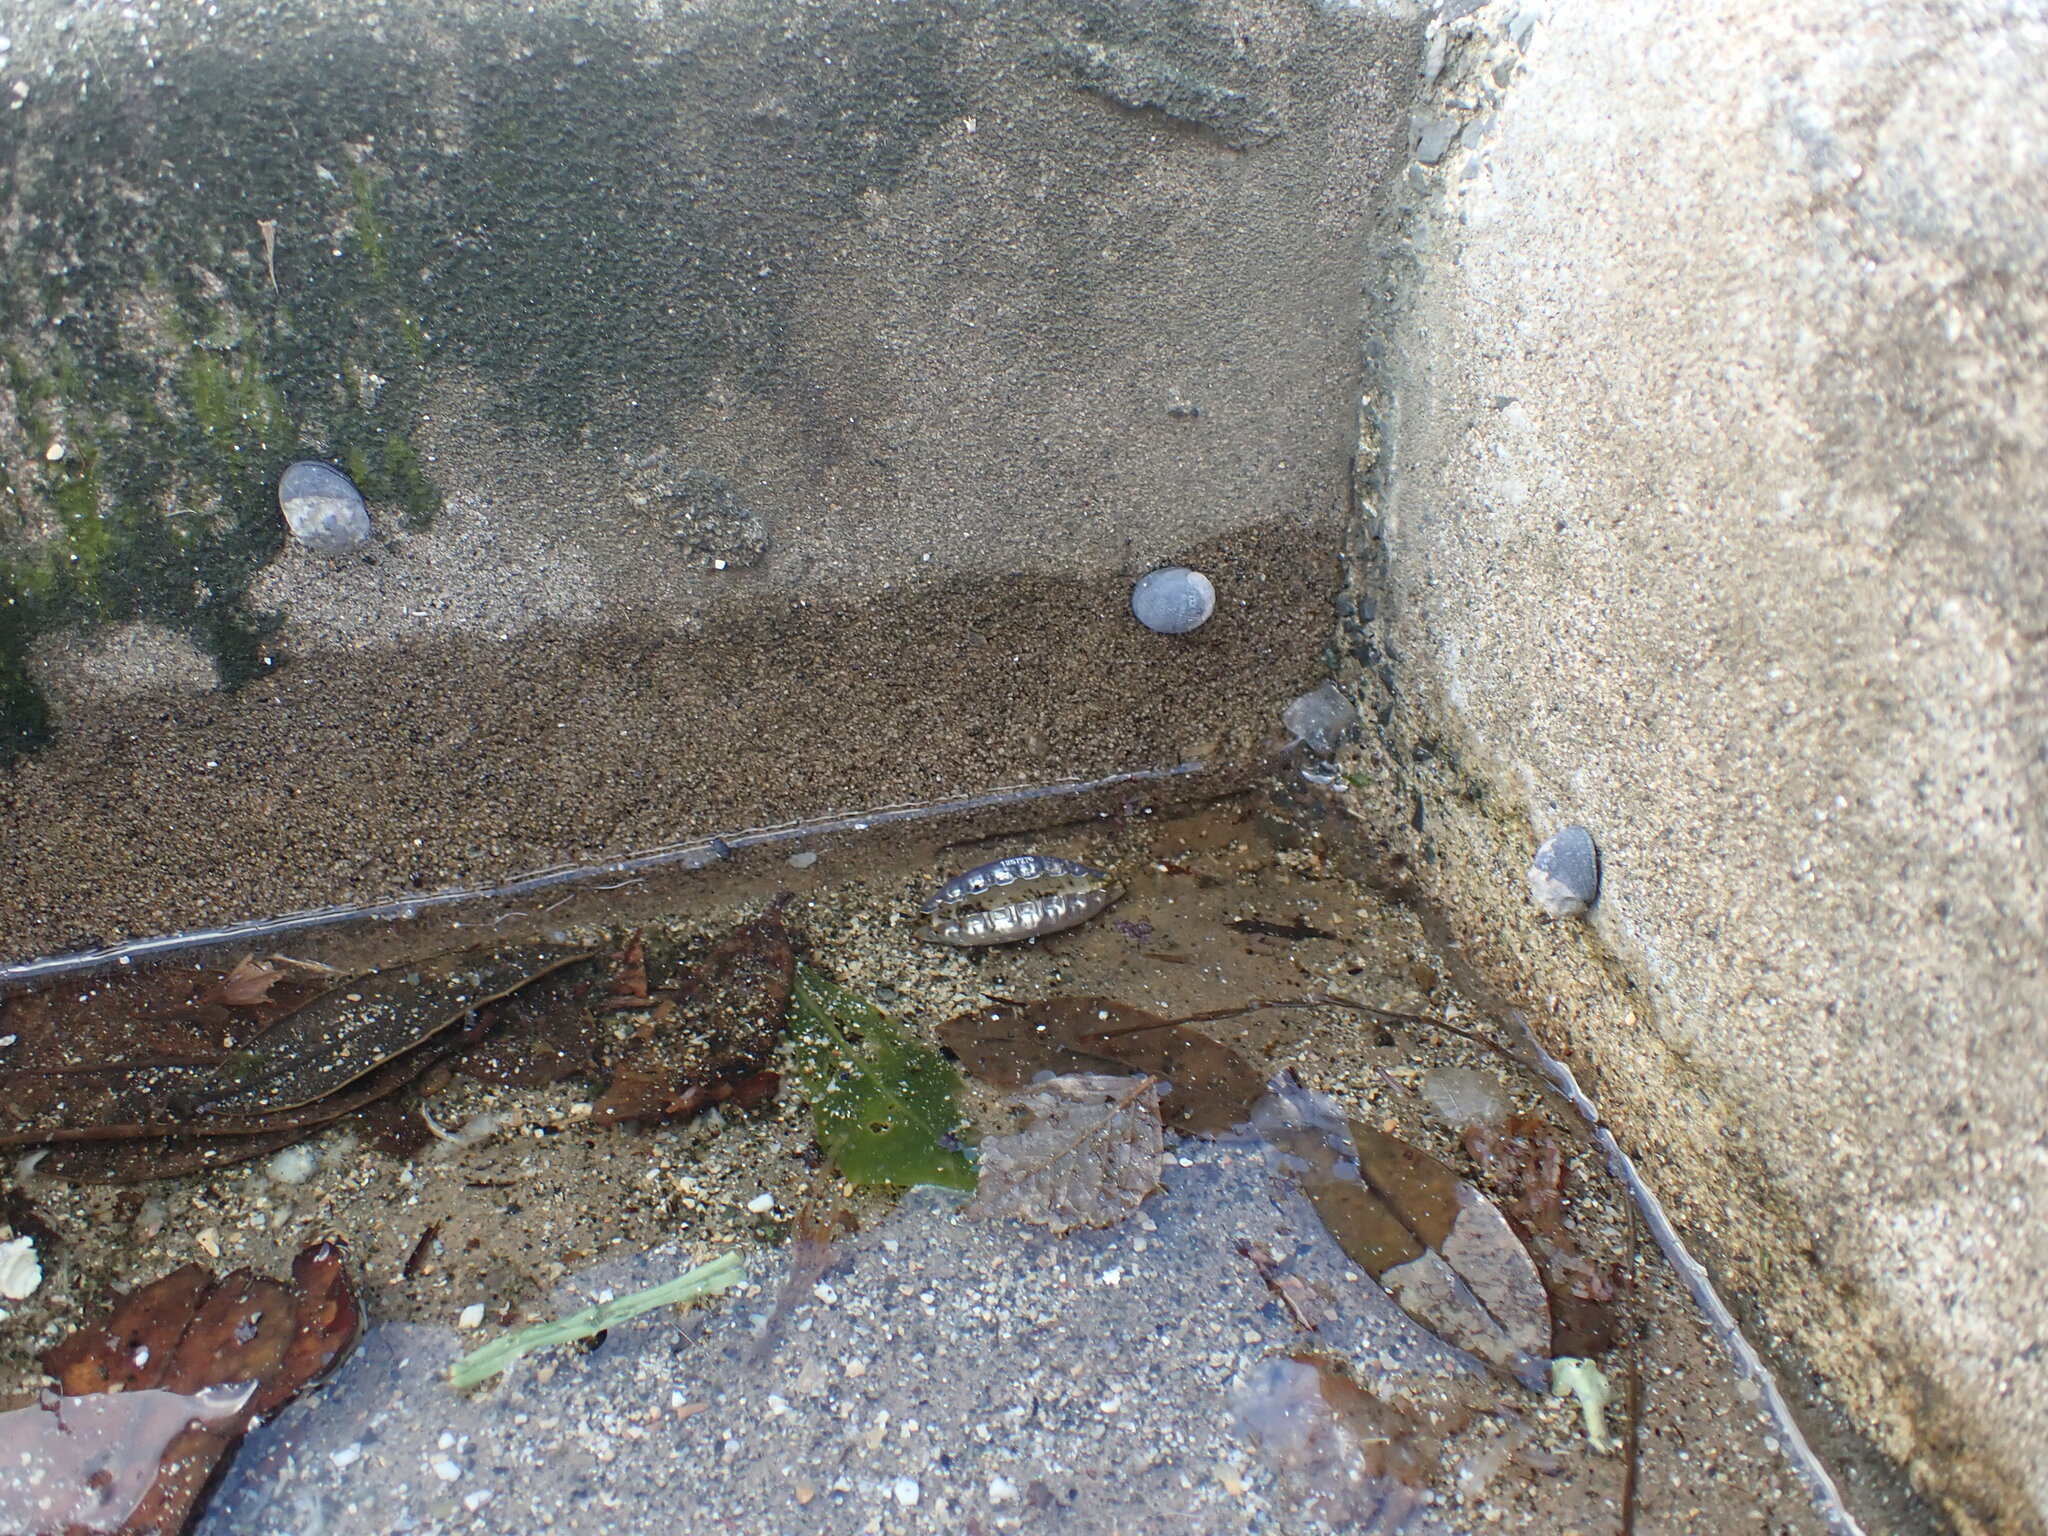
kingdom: Animalia
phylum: Mollusca
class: Gastropoda
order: Cycloneritida
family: Neritidae
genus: Nerita
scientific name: Nerita melanotragus
